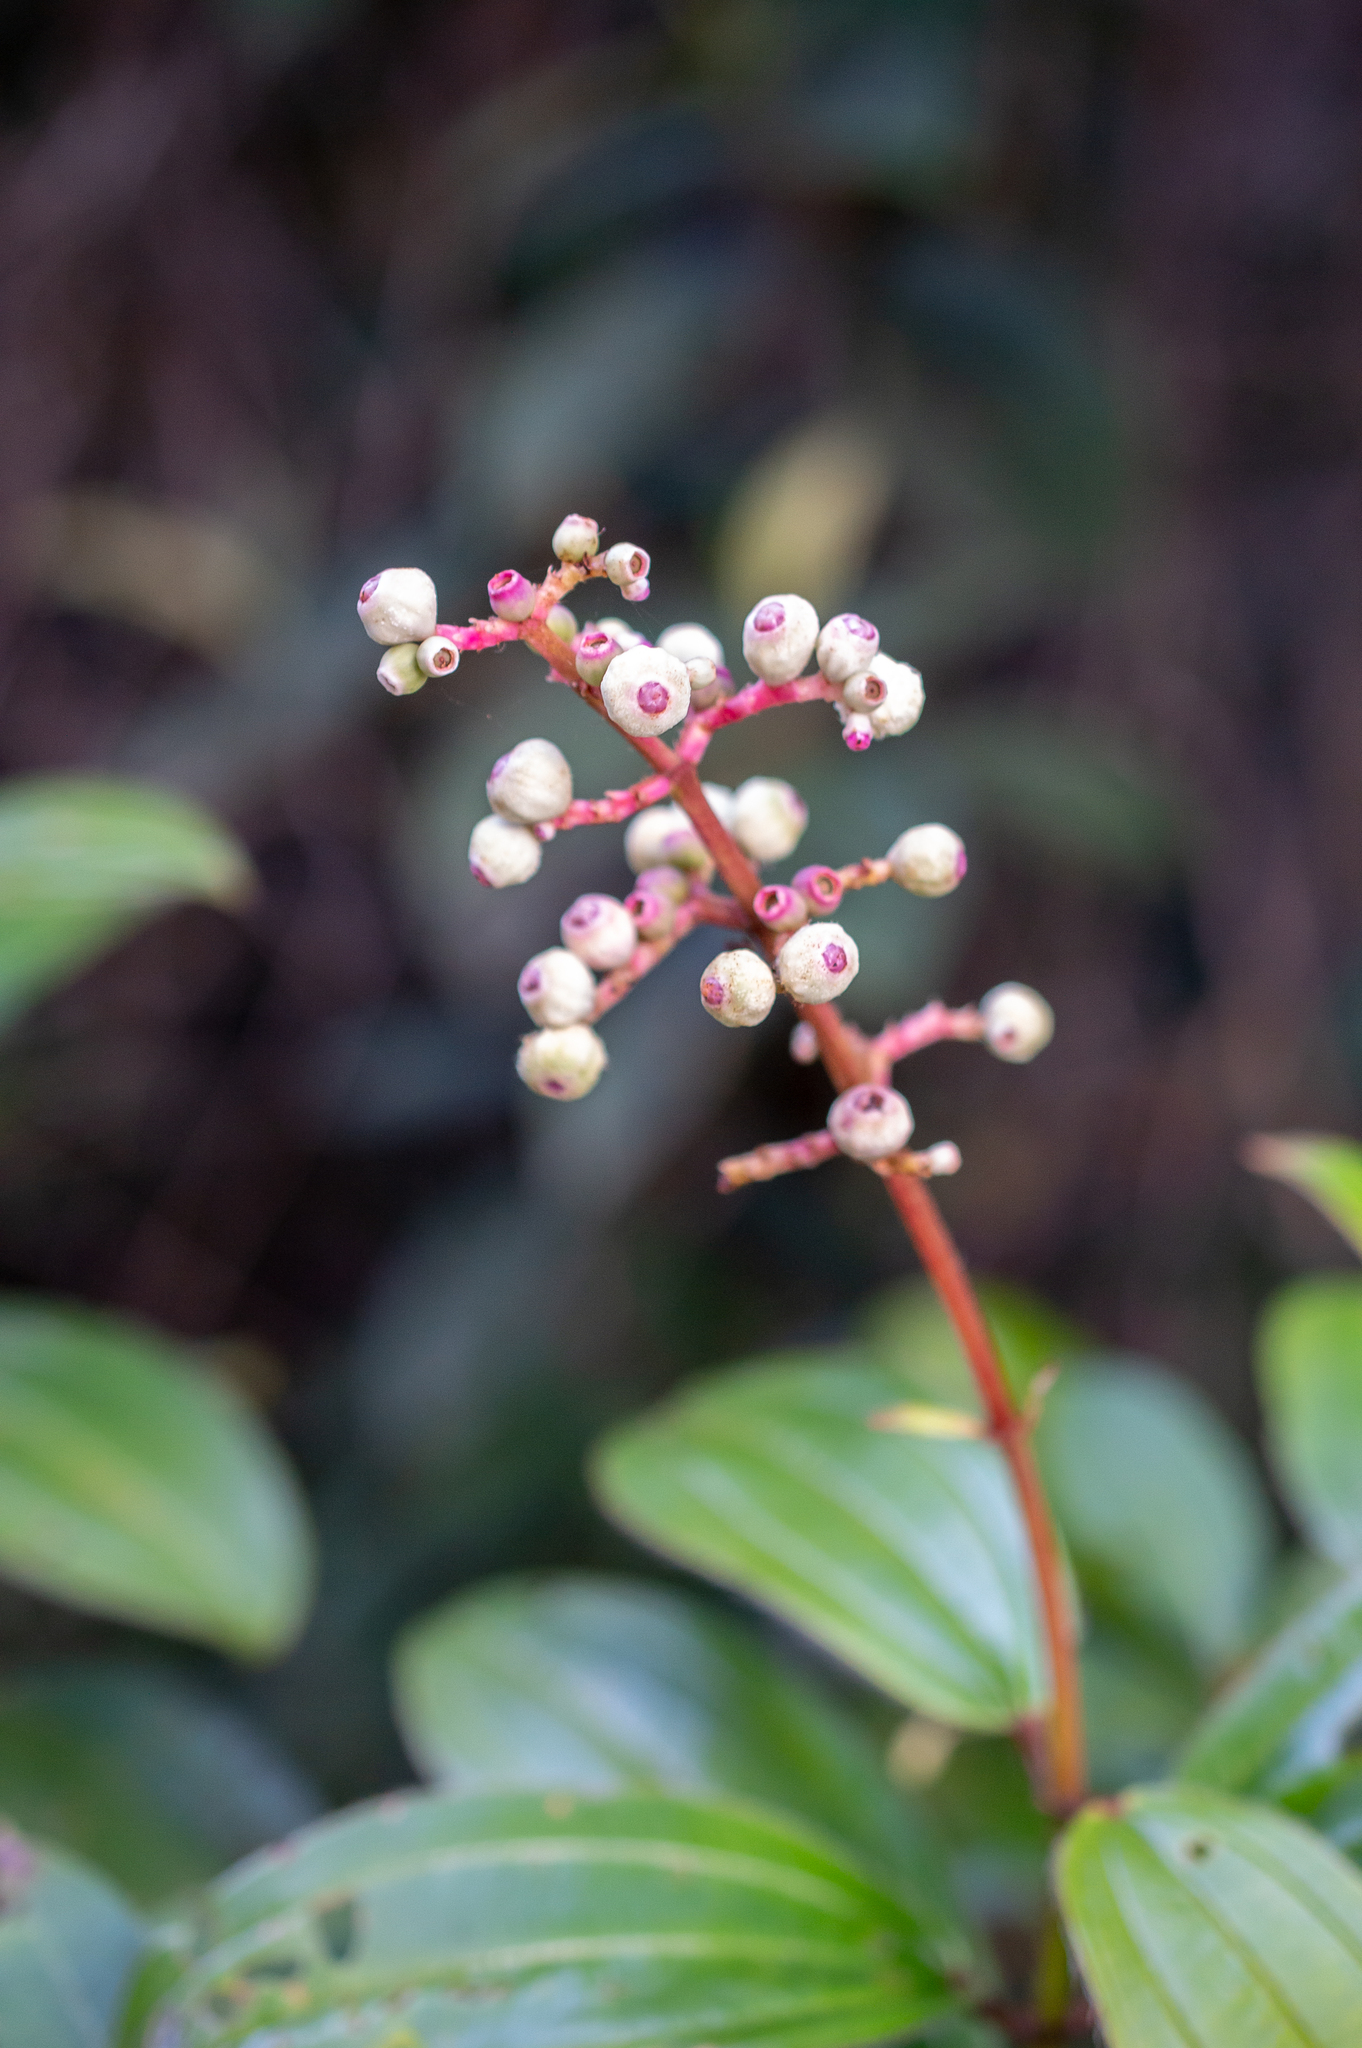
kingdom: Plantae
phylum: Tracheophyta
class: Magnoliopsida
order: Myrtales
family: Melastomataceae
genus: Miconia
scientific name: Miconia ciliata
